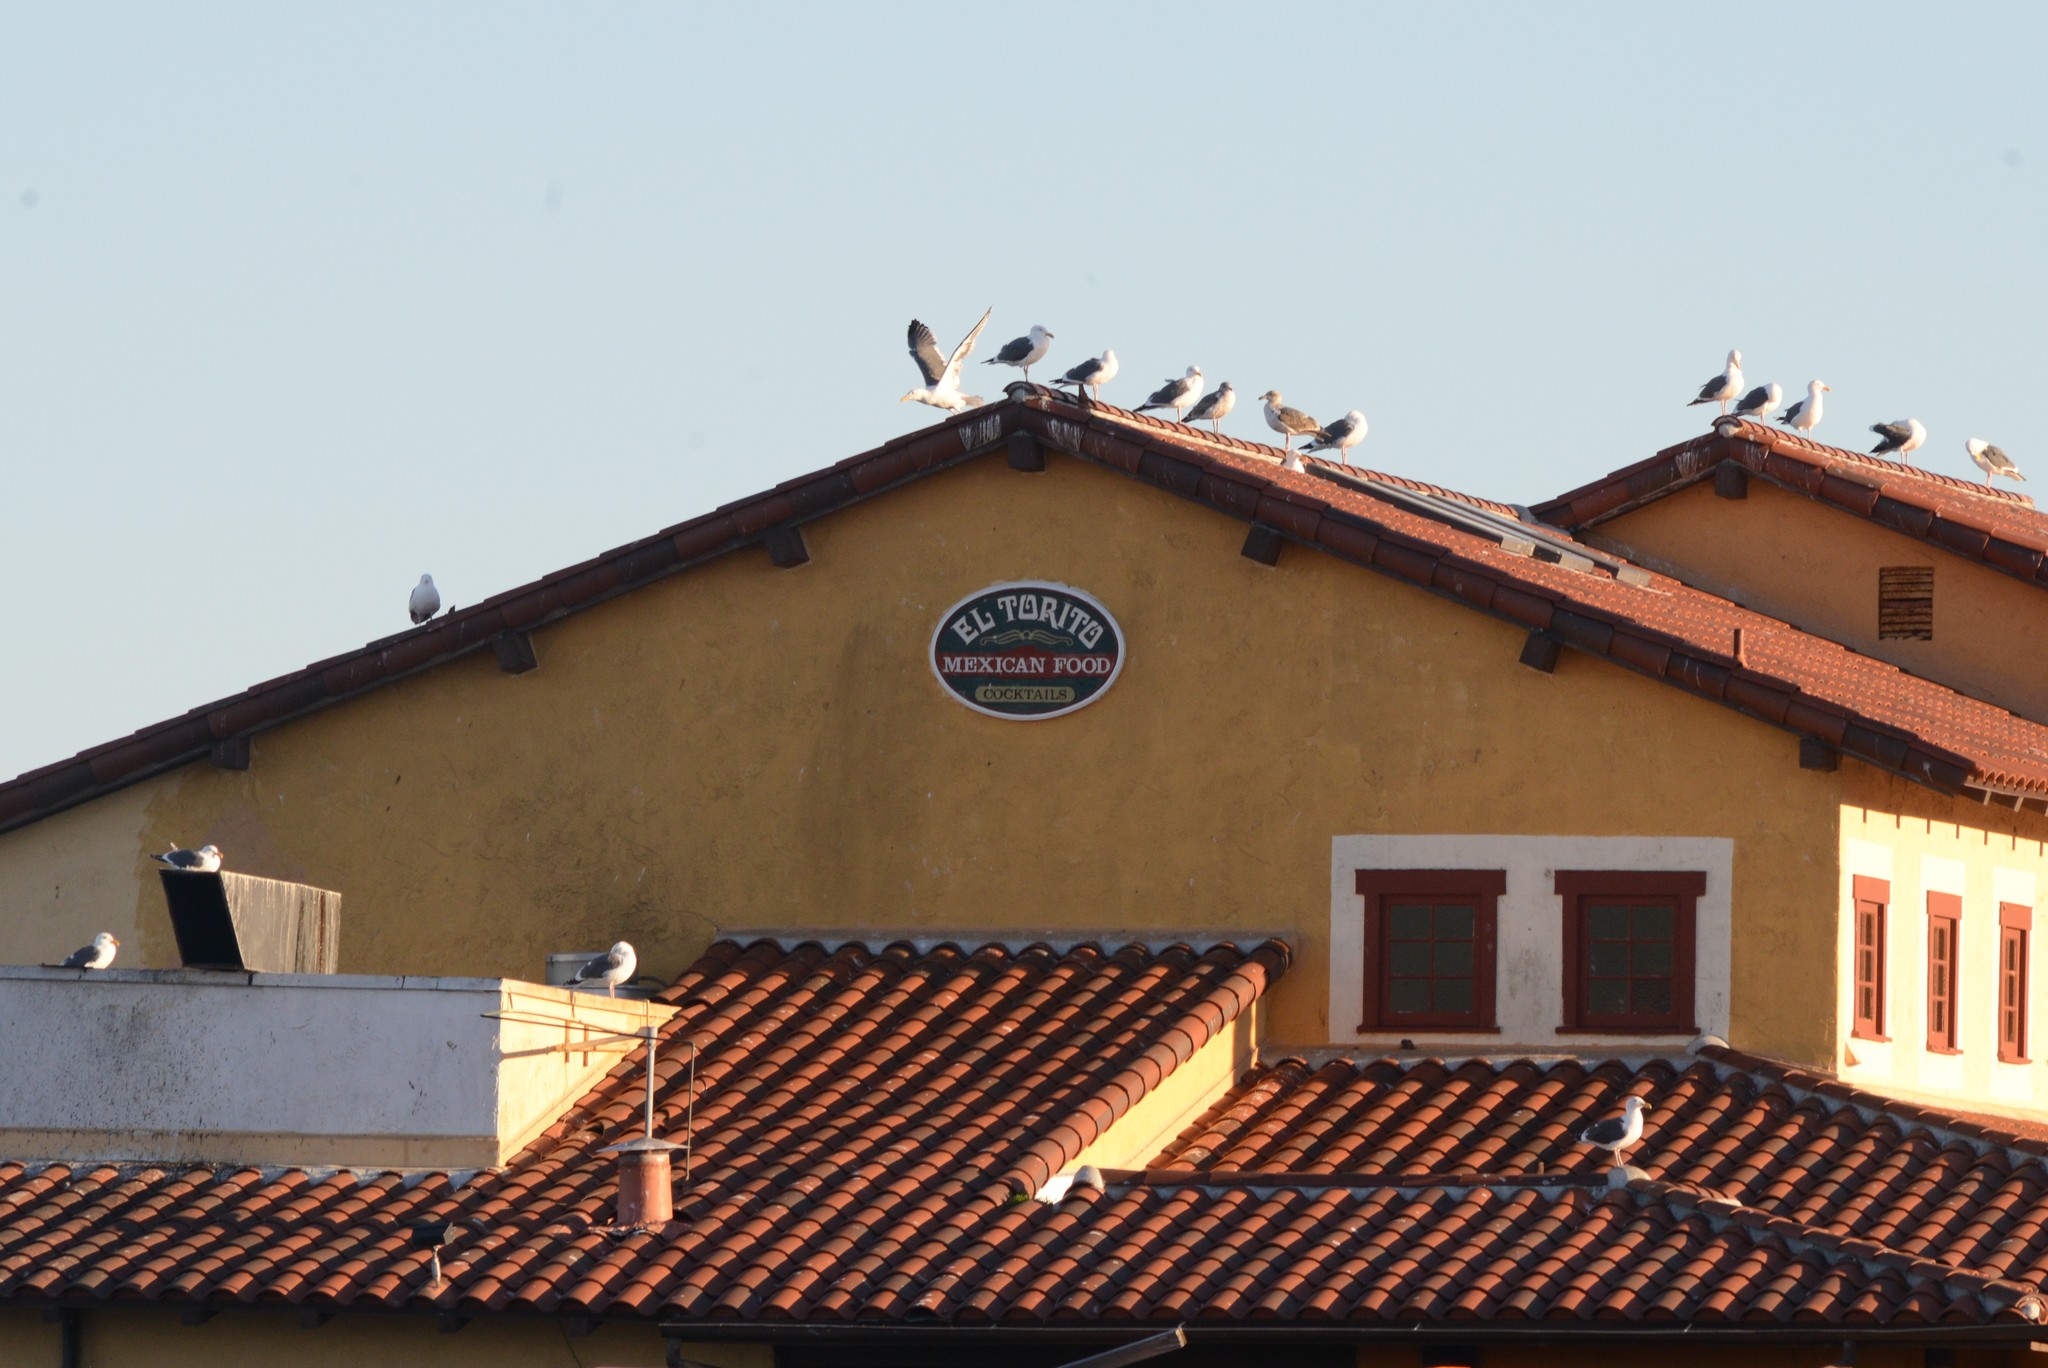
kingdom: Animalia
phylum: Chordata
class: Aves
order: Charadriiformes
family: Laridae
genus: Larus
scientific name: Larus occidentalis
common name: Western gull
